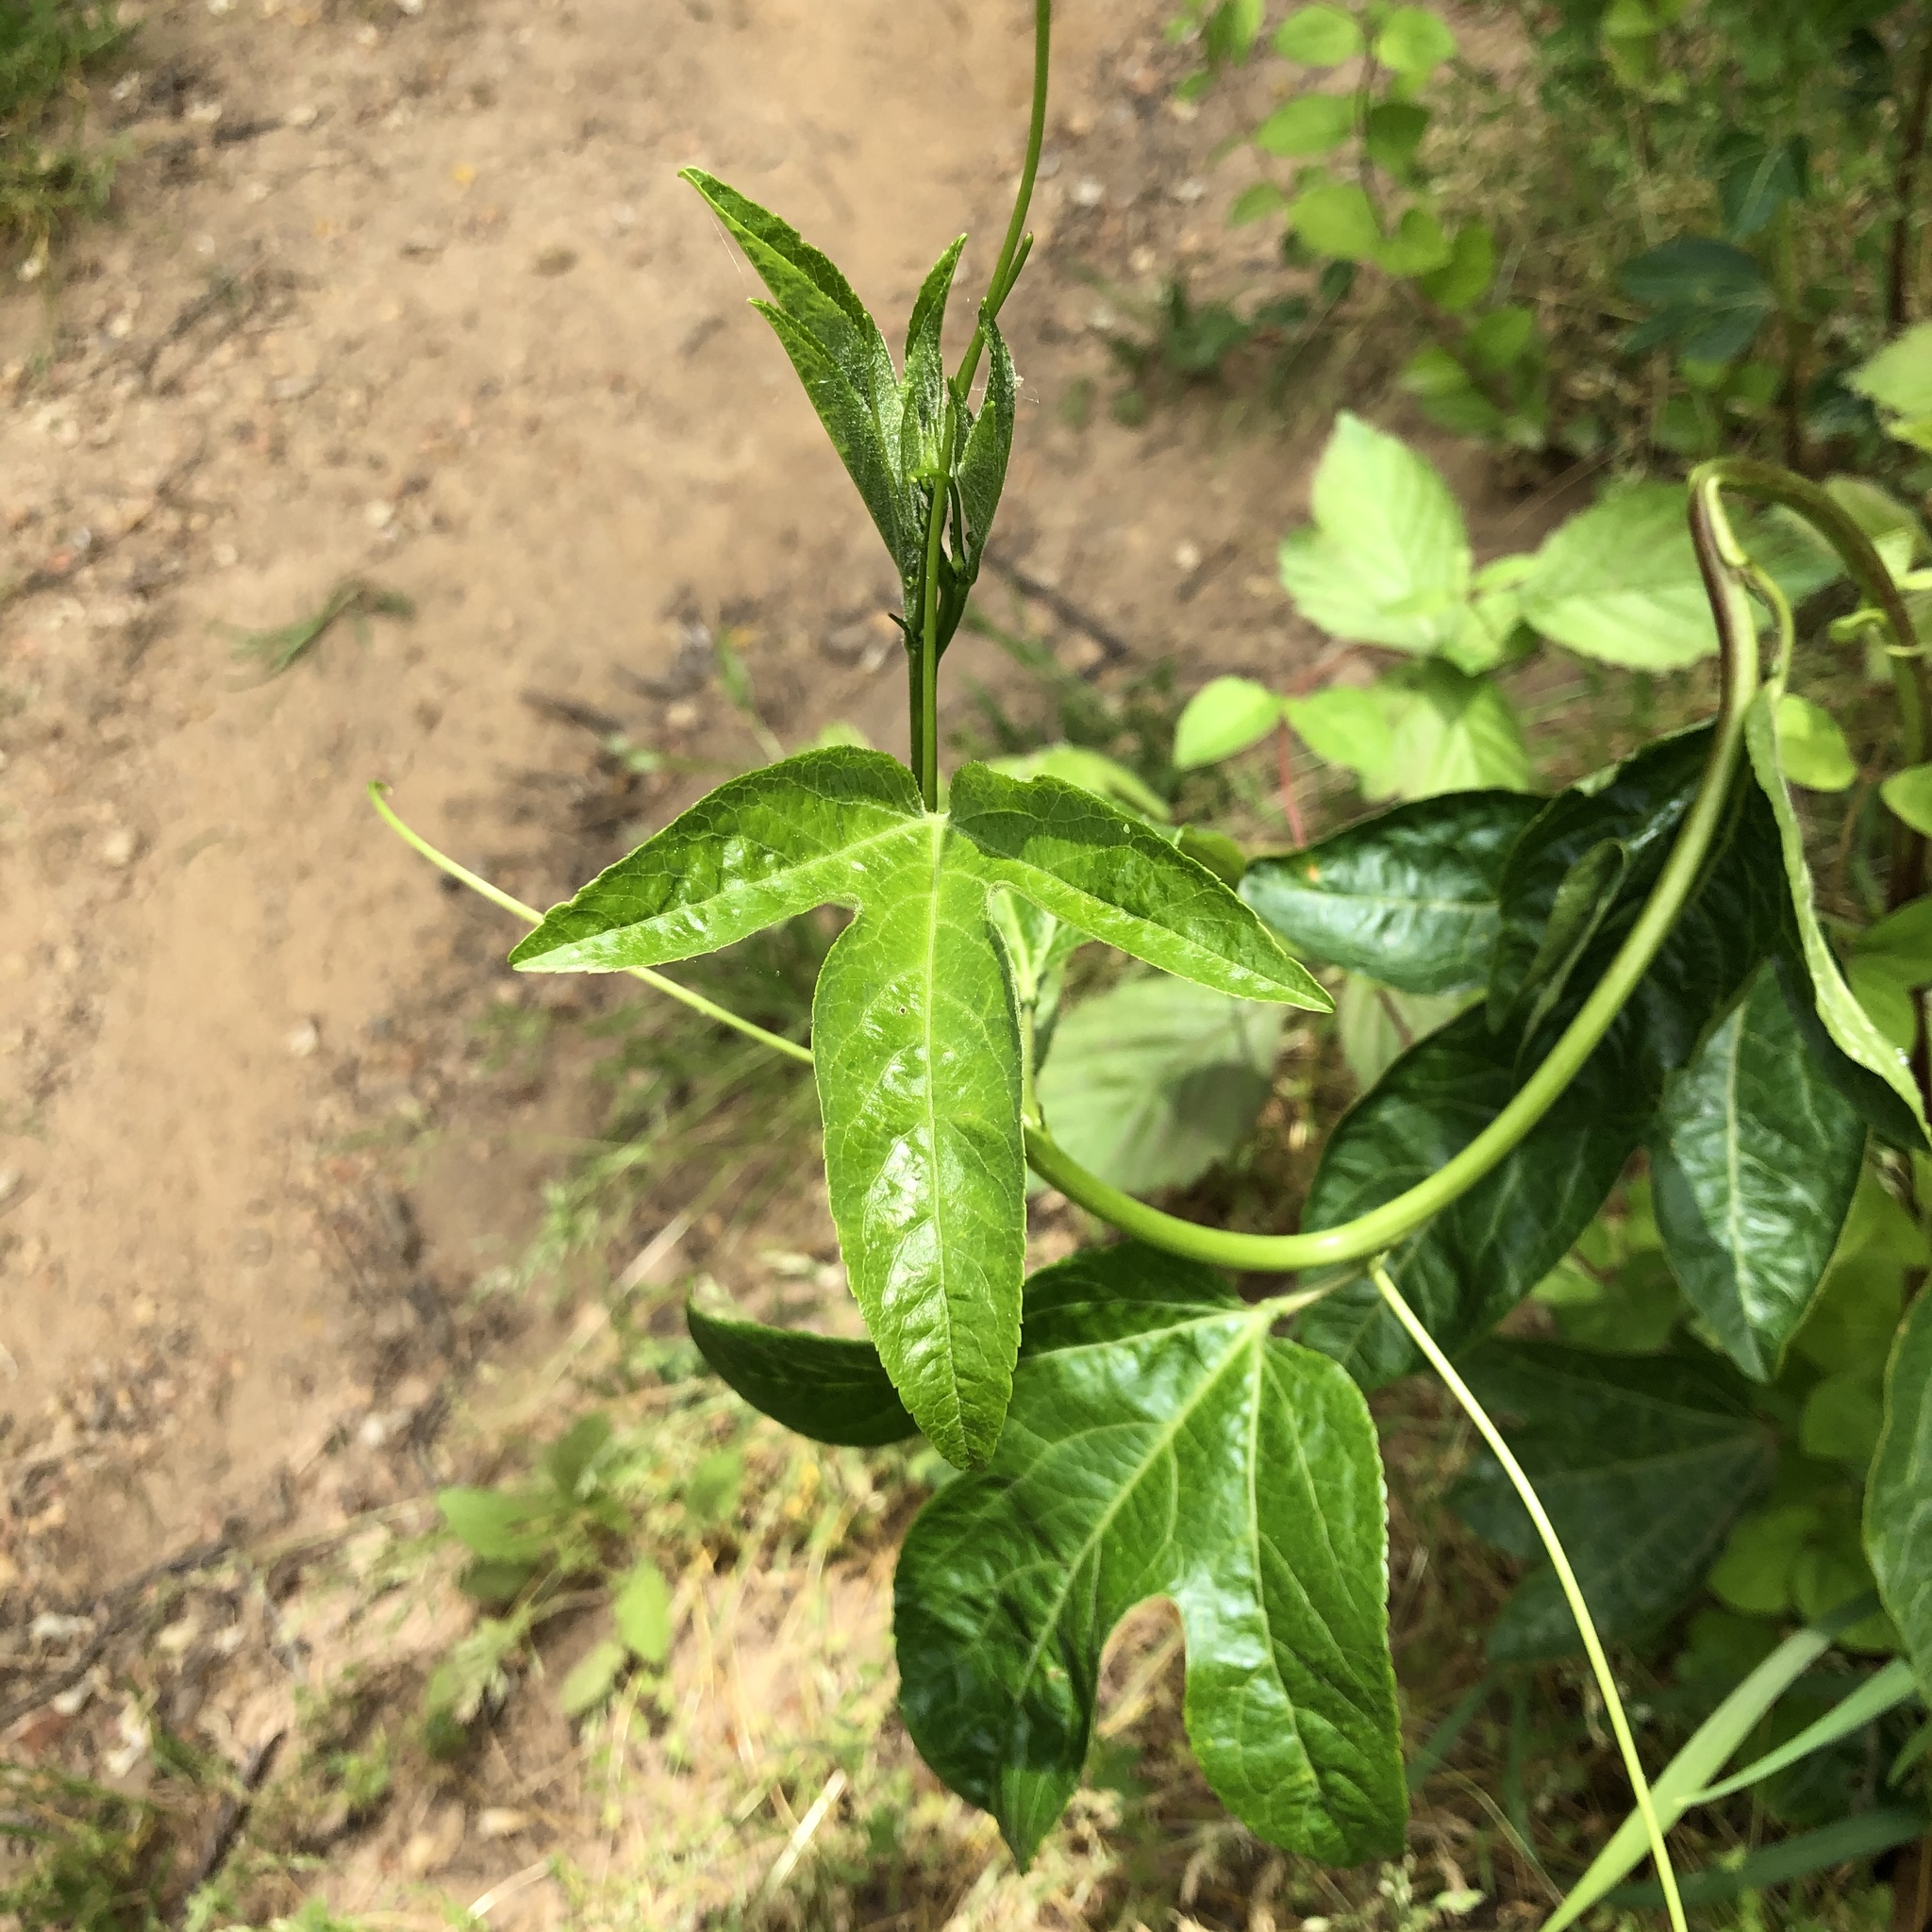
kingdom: Plantae
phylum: Tracheophyta
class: Magnoliopsida
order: Malpighiales
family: Passifloraceae
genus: Passiflora
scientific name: Passiflora incarnata
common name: Apricot-vine
